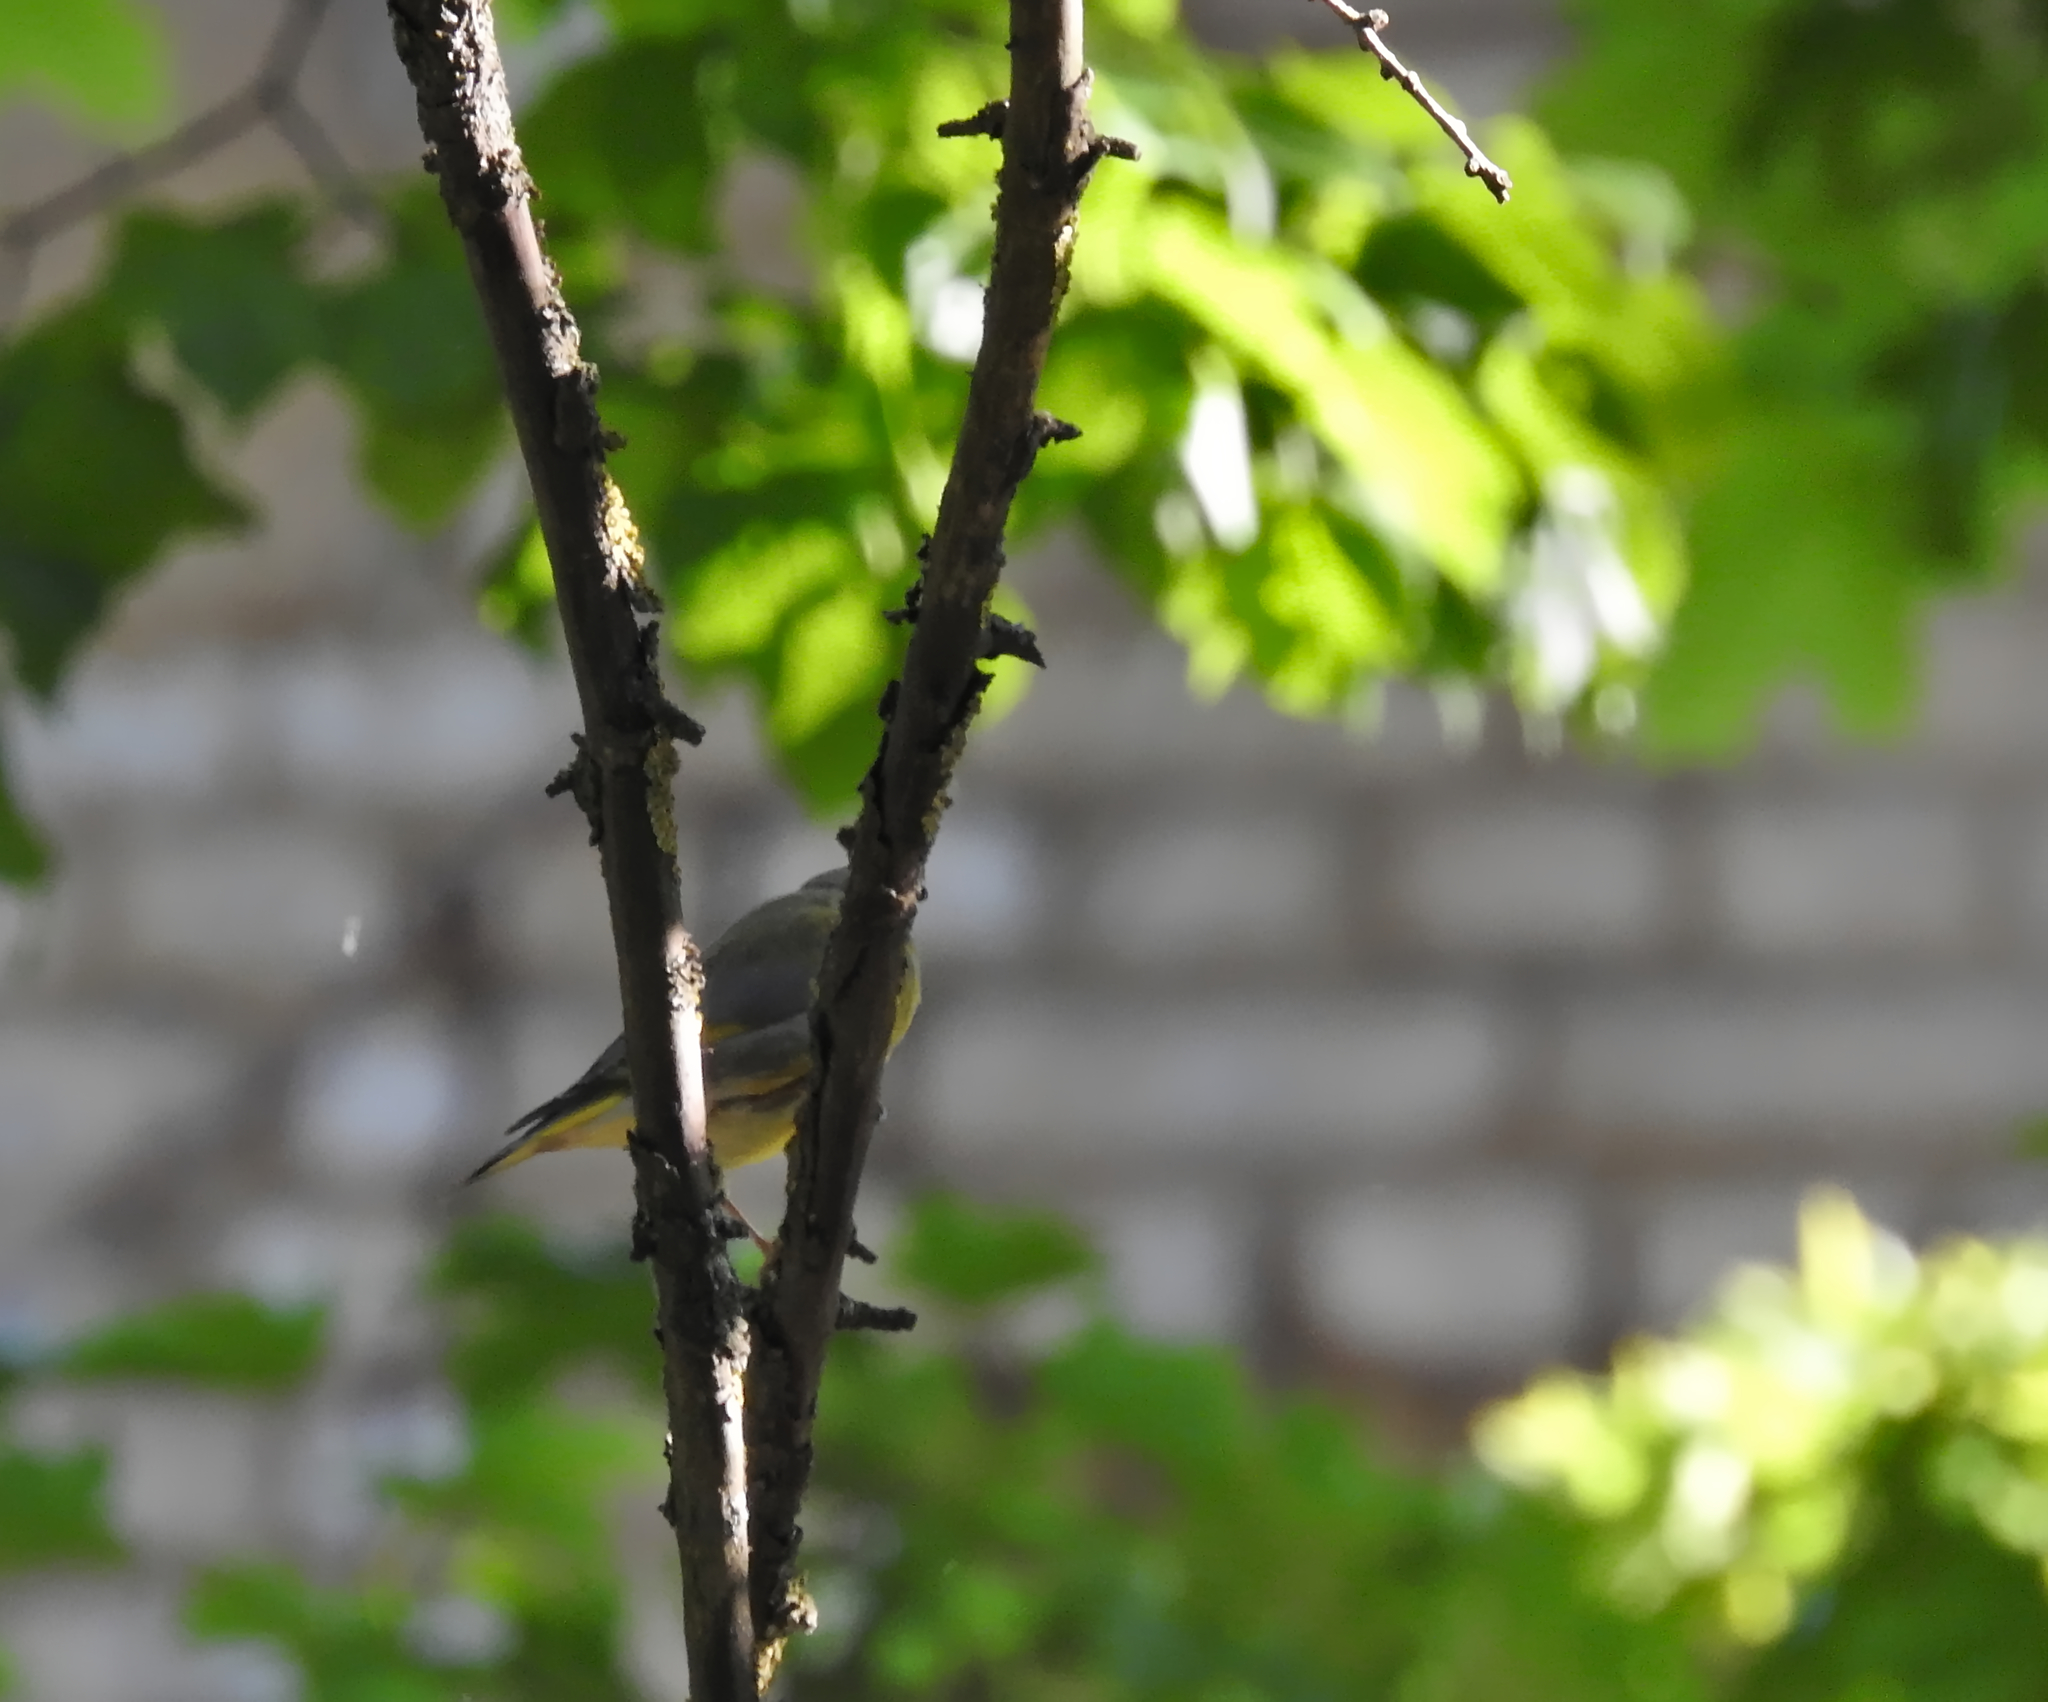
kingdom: Plantae
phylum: Tracheophyta
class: Liliopsida
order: Poales
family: Poaceae
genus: Chloris
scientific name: Chloris chloris
